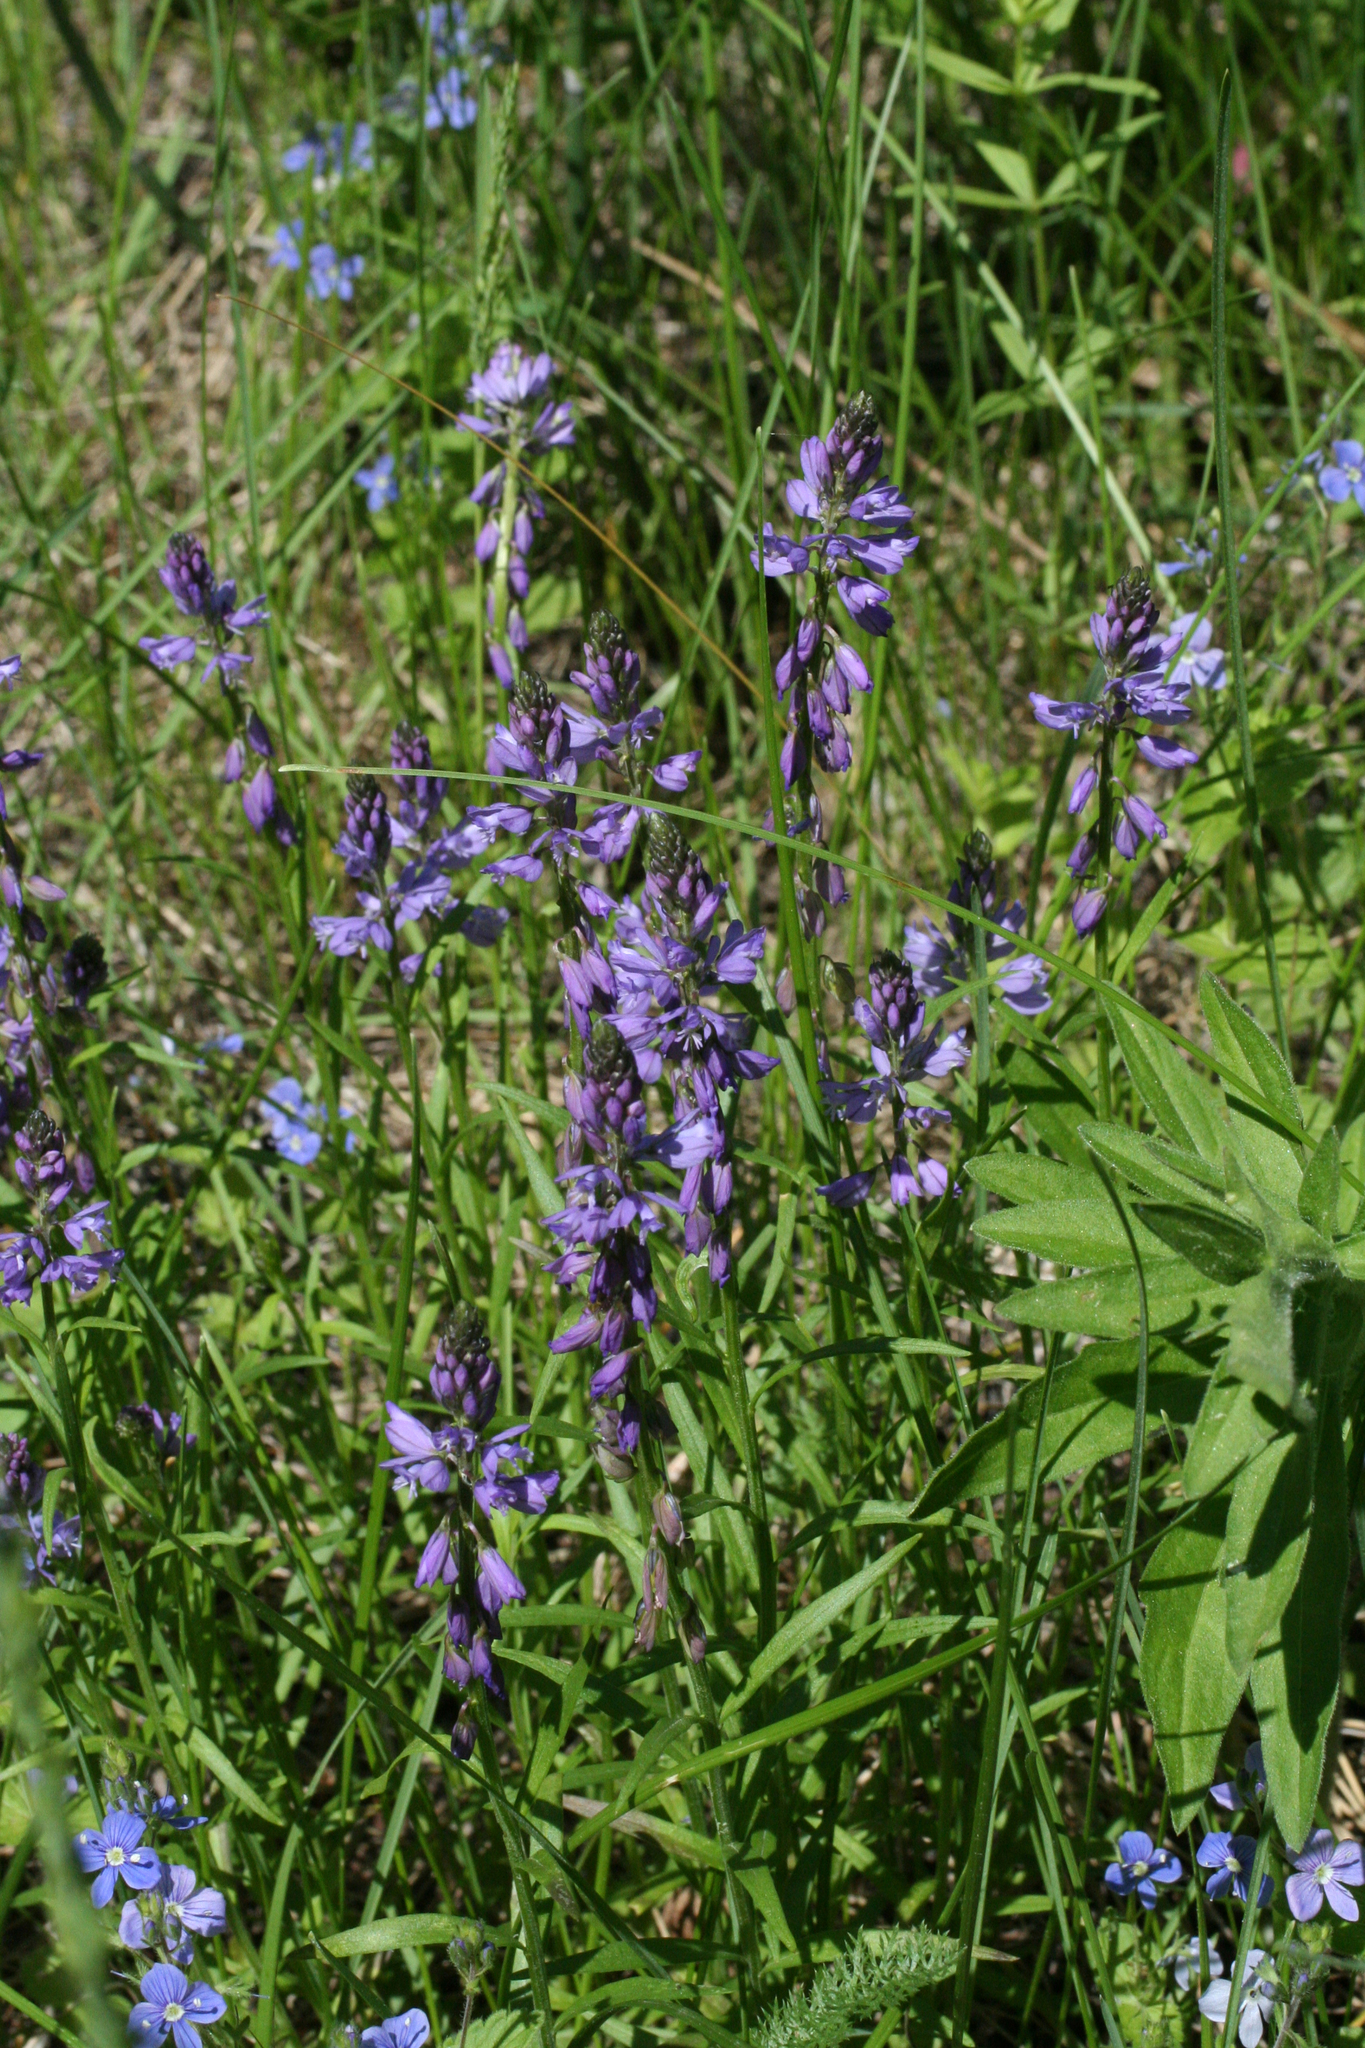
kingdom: Plantae
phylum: Tracheophyta
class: Magnoliopsida
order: Fabales
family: Polygalaceae
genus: Polygala
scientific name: Polygala comosa
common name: Tufted milkwort
